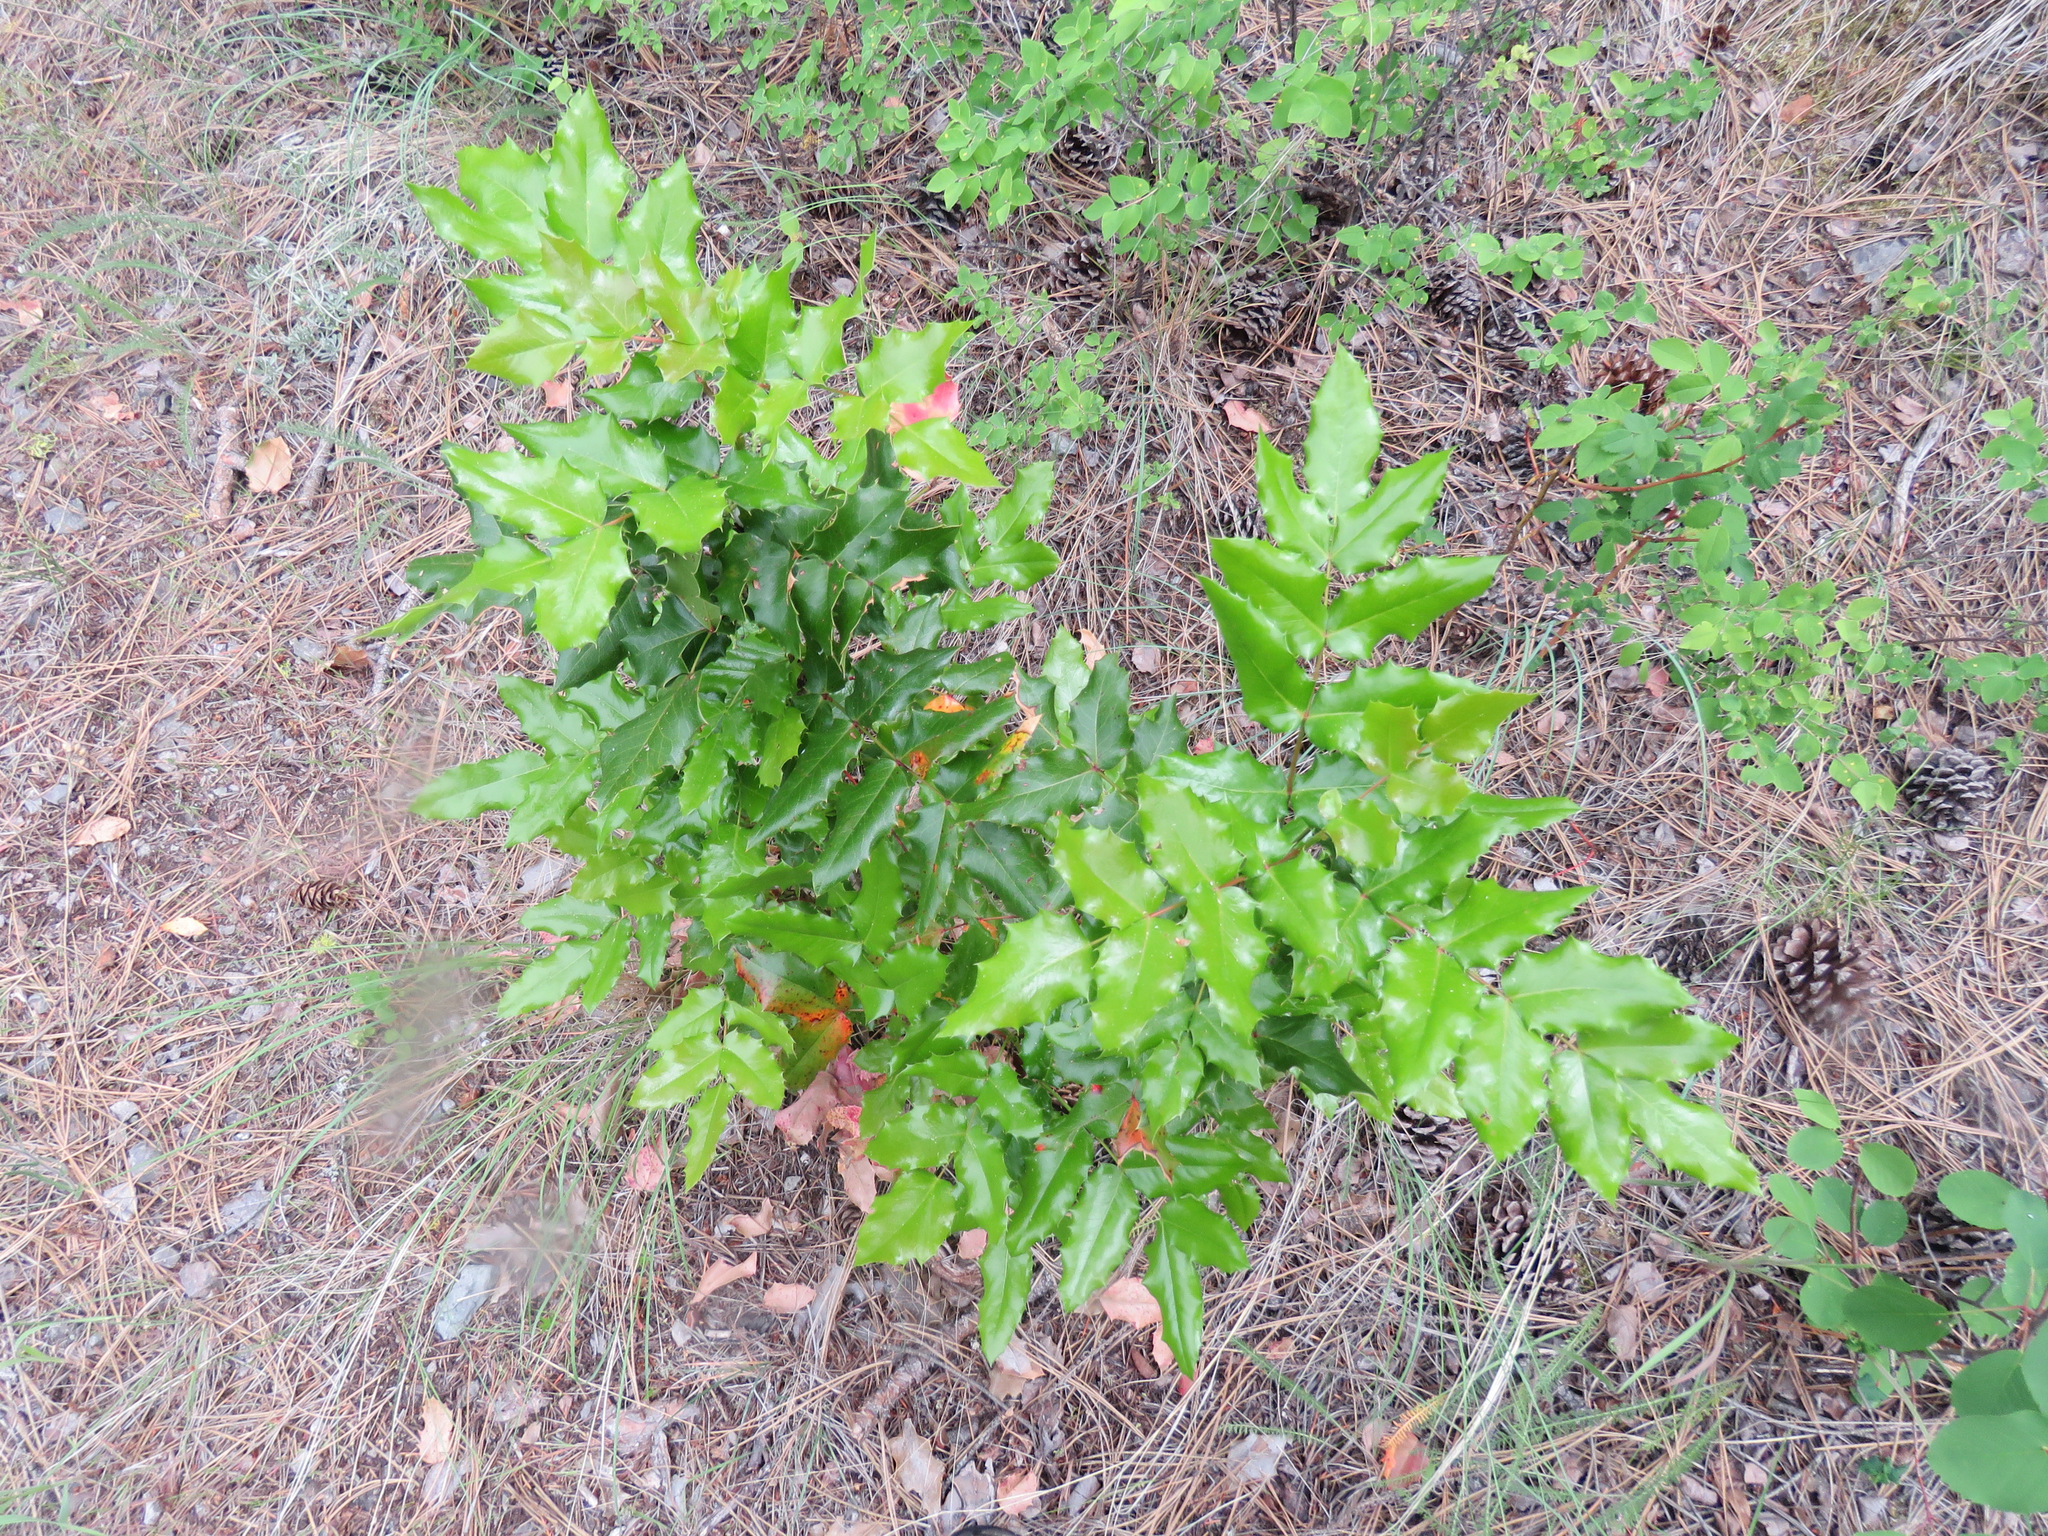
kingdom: Plantae
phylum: Tracheophyta
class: Magnoliopsida
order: Ranunculales
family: Berberidaceae
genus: Mahonia
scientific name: Mahonia aquifolium
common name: Oregon-grape
